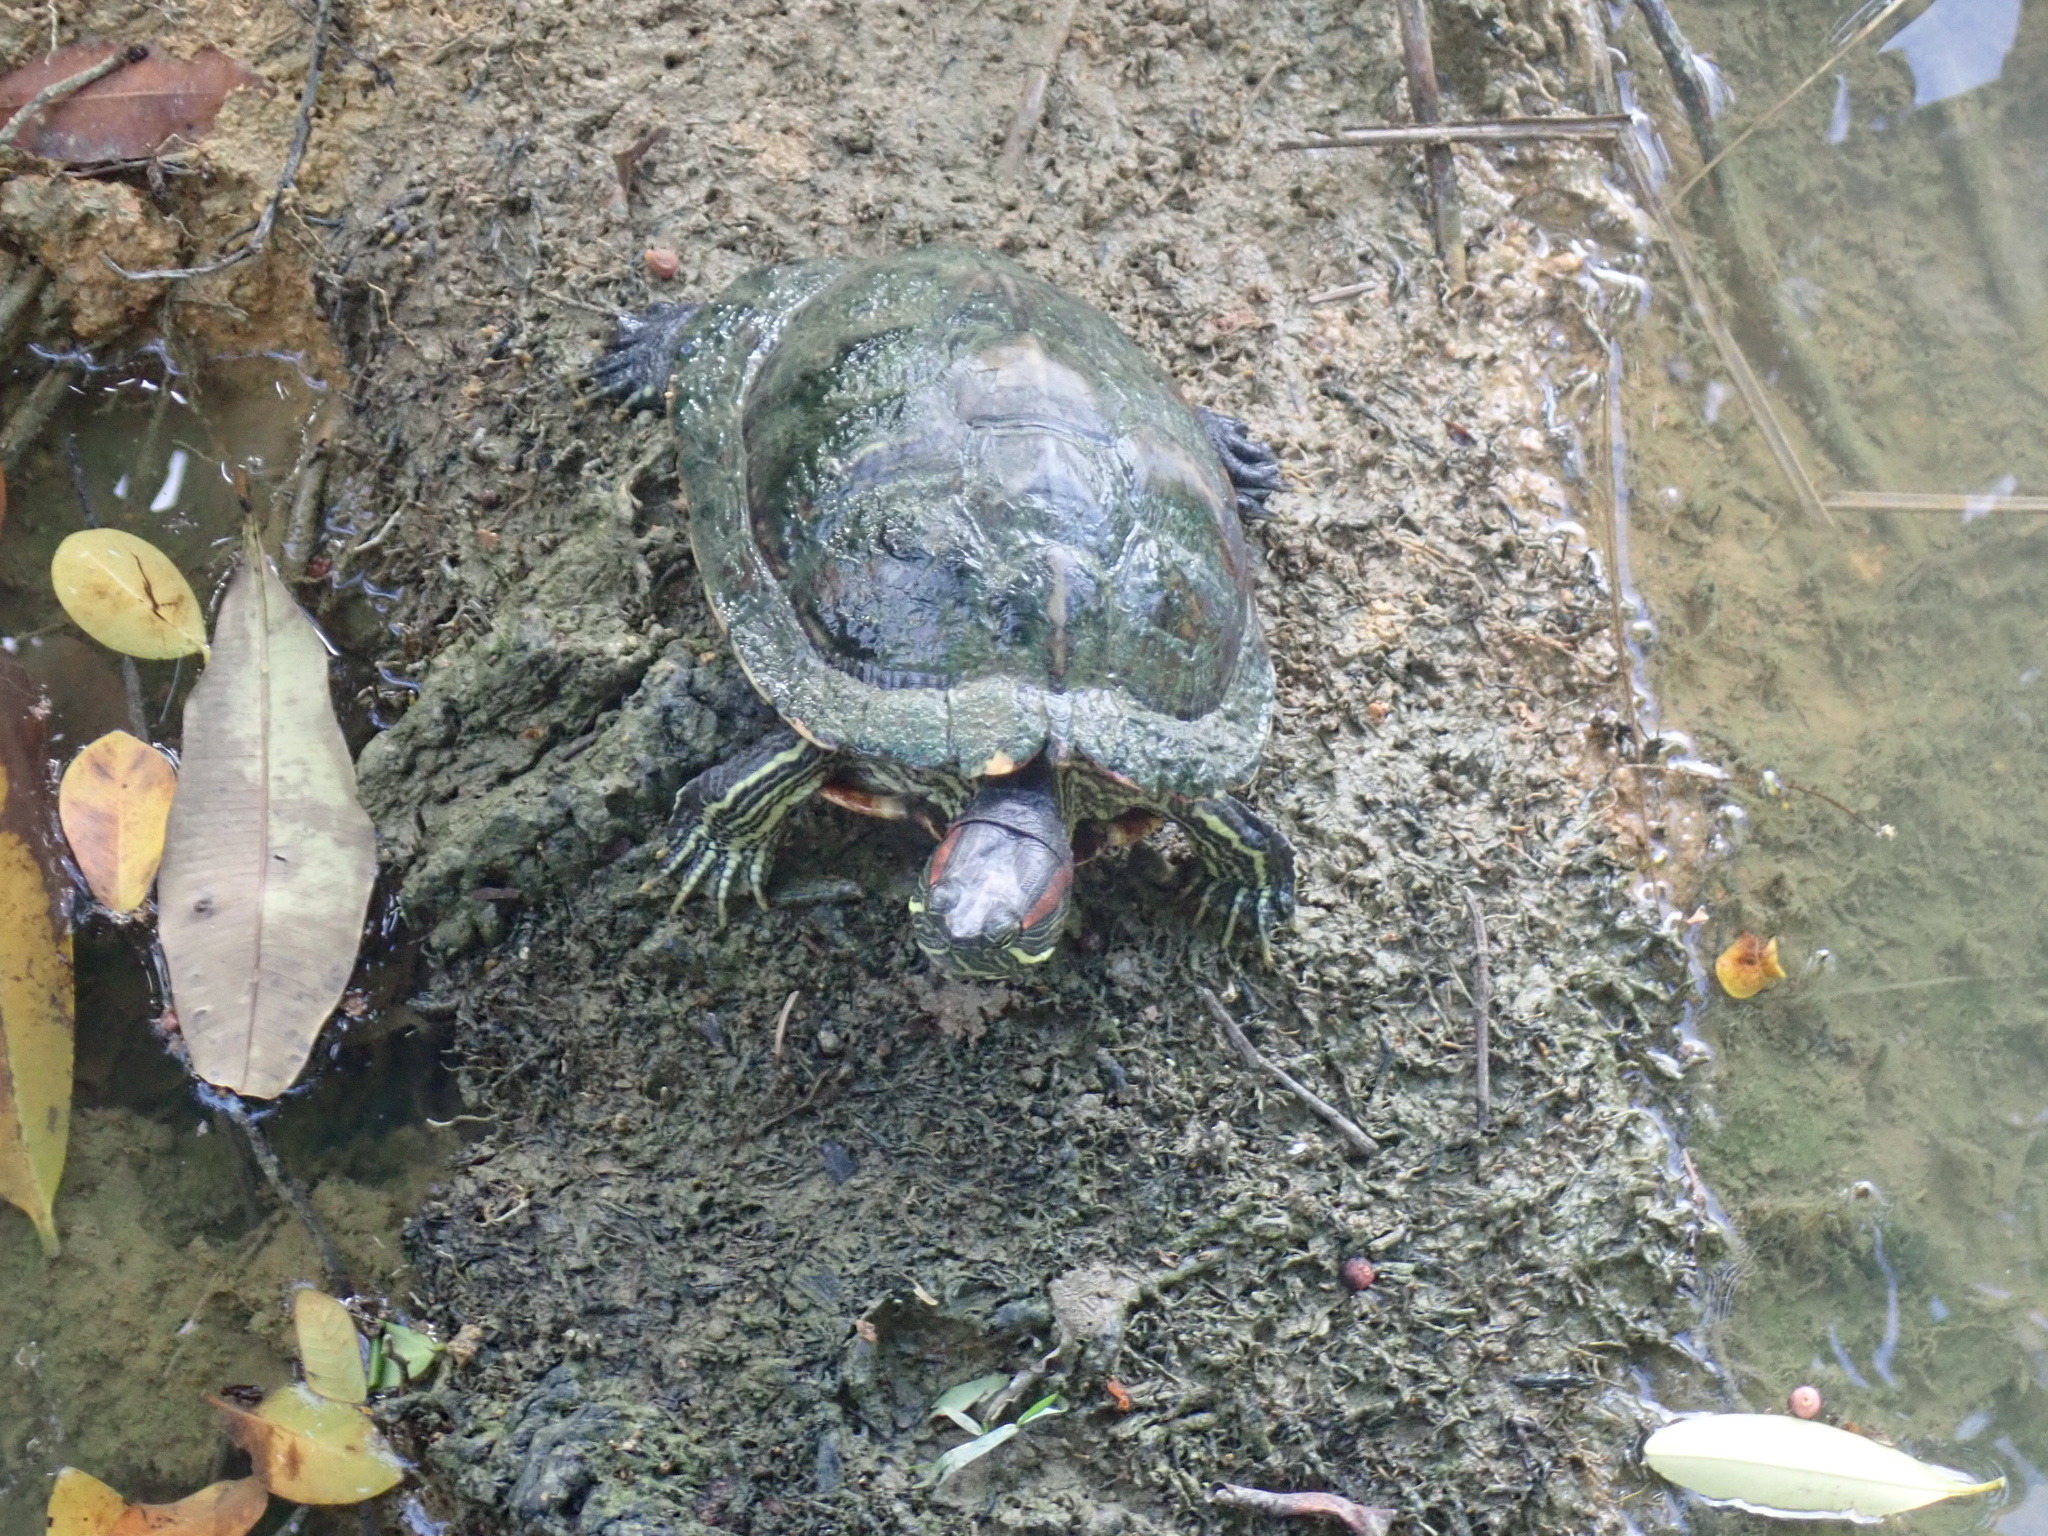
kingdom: Animalia
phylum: Chordata
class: Testudines
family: Emydidae
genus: Trachemys
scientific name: Trachemys scripta
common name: Slider
